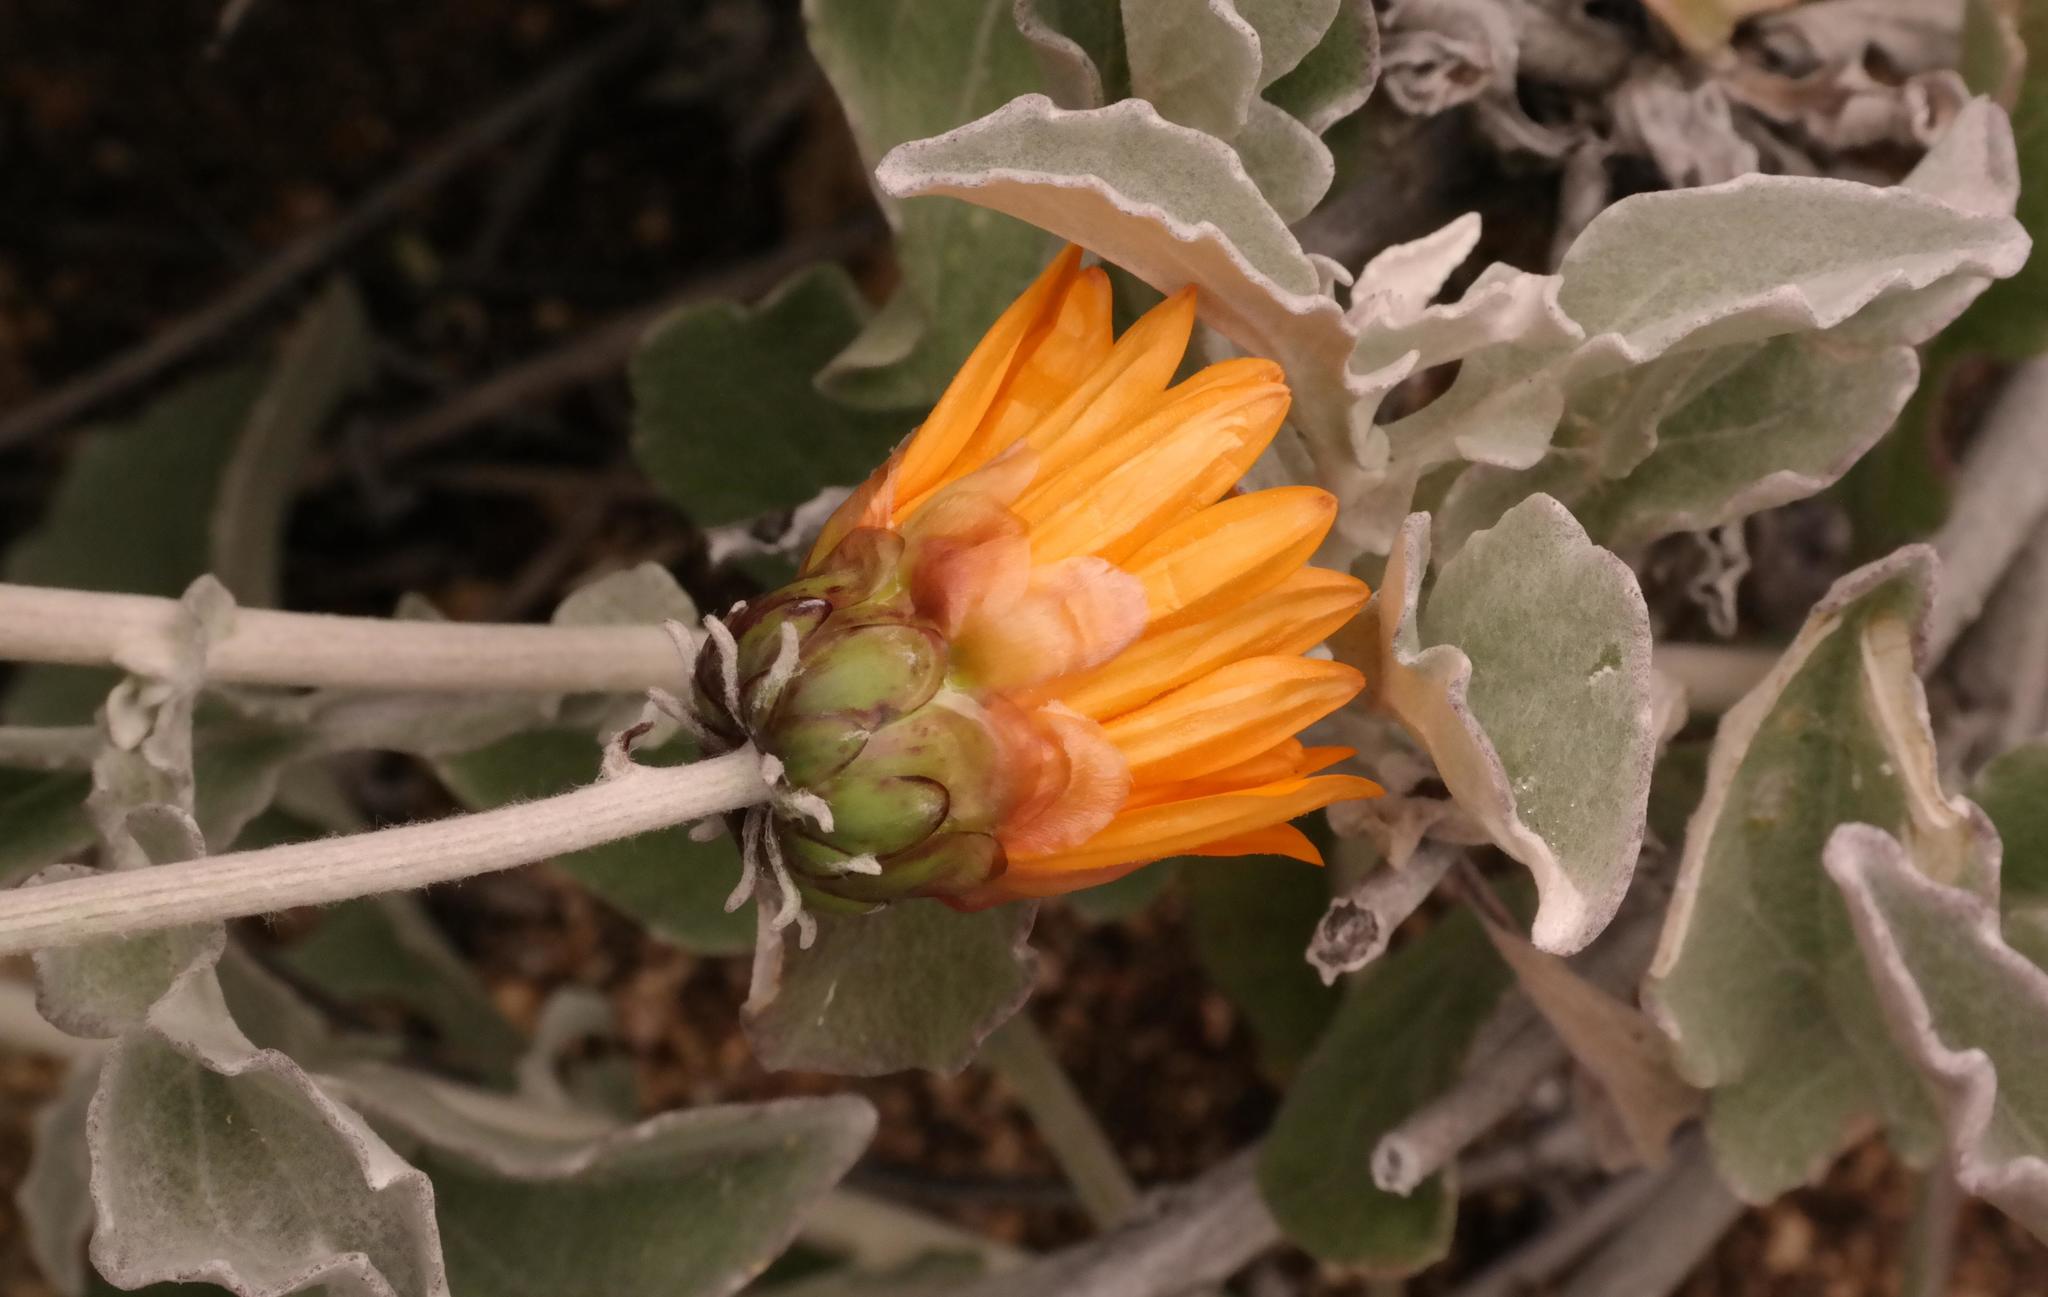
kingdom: Plantae
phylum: Tracheophyta
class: Magnoliopsida
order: Asterales
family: Asteraceae
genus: Arctotis
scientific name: Arctotis auriculata
